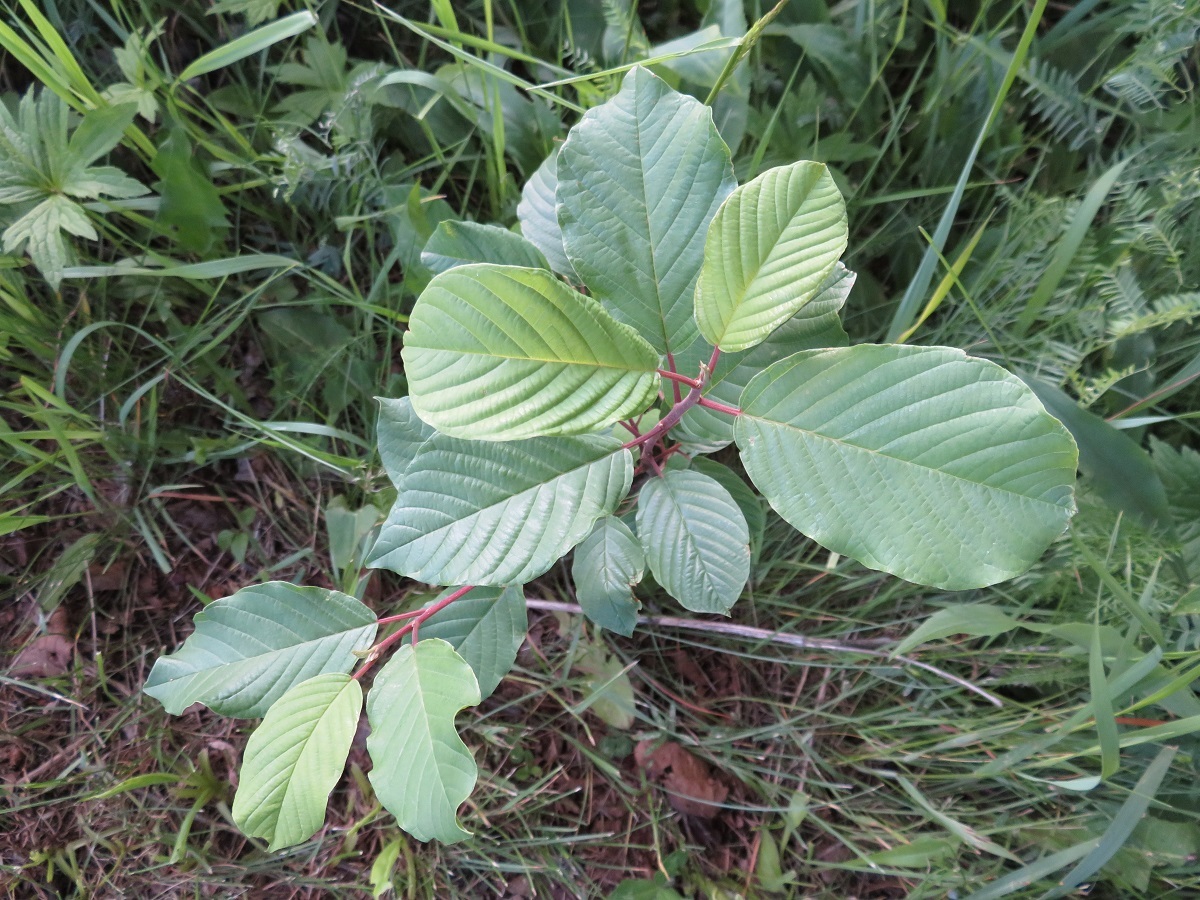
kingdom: Plantae
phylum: Tracheophyta
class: Magnoliopsida
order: Rosales
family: Rhamnaceae
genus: Frangula
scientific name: Frangula alnus
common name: Alder buckthorn
